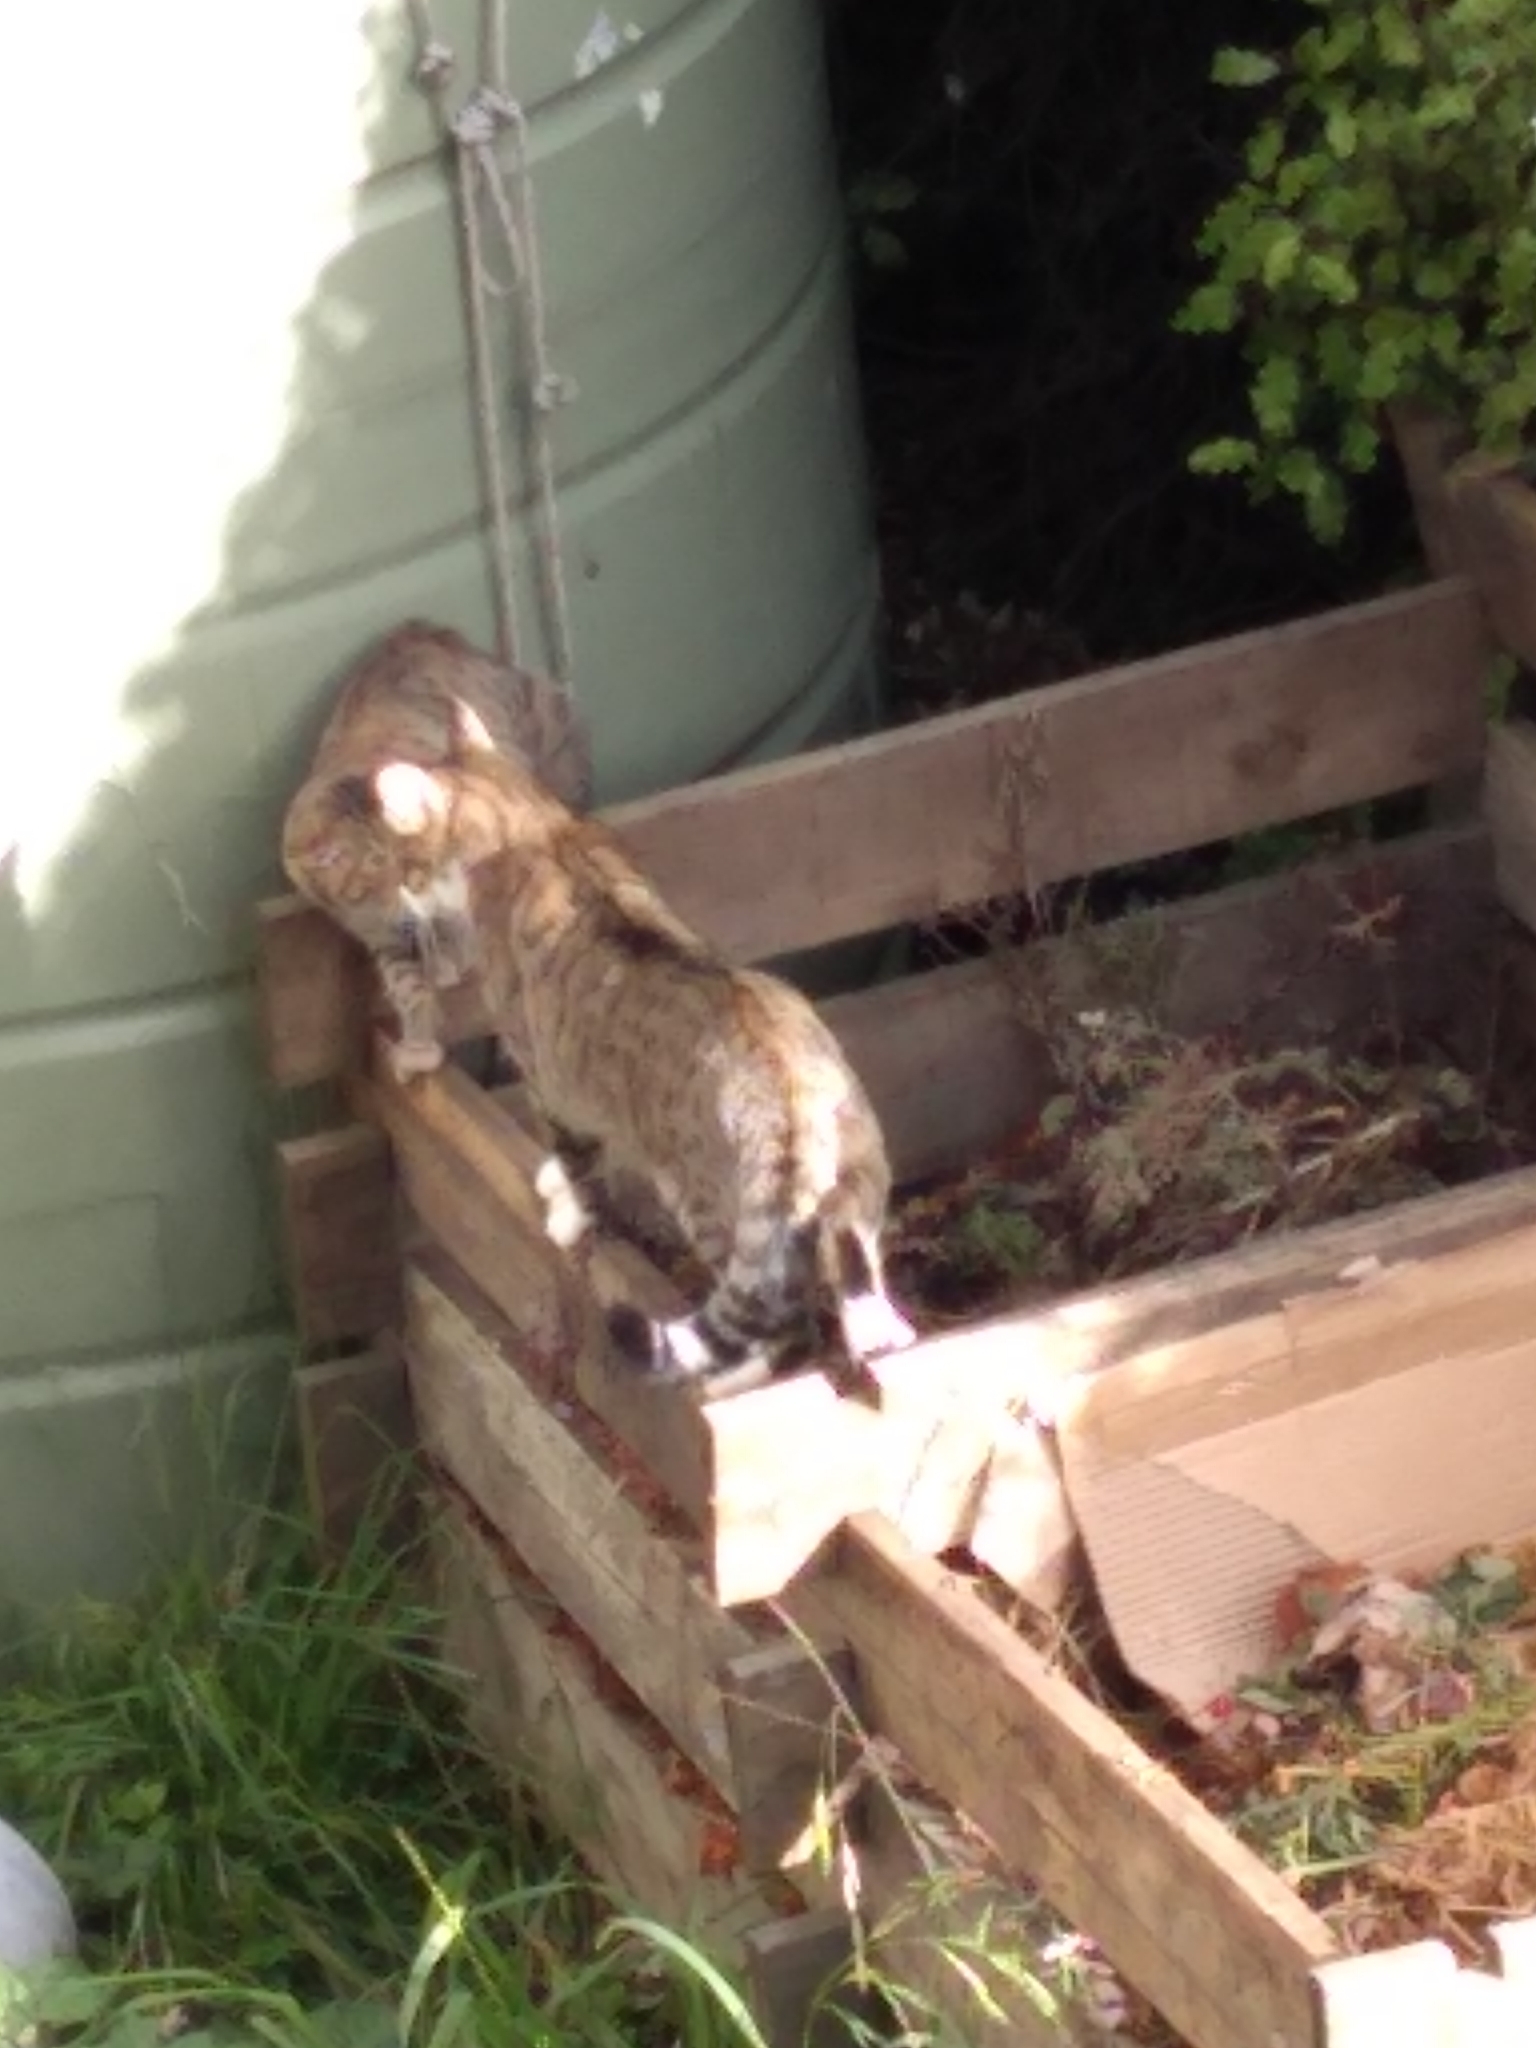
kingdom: Animalia
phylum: Chordata
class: Mammalia
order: Carnivora
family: Felidae
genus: Felis
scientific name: Felis catus
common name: Domestic cat
